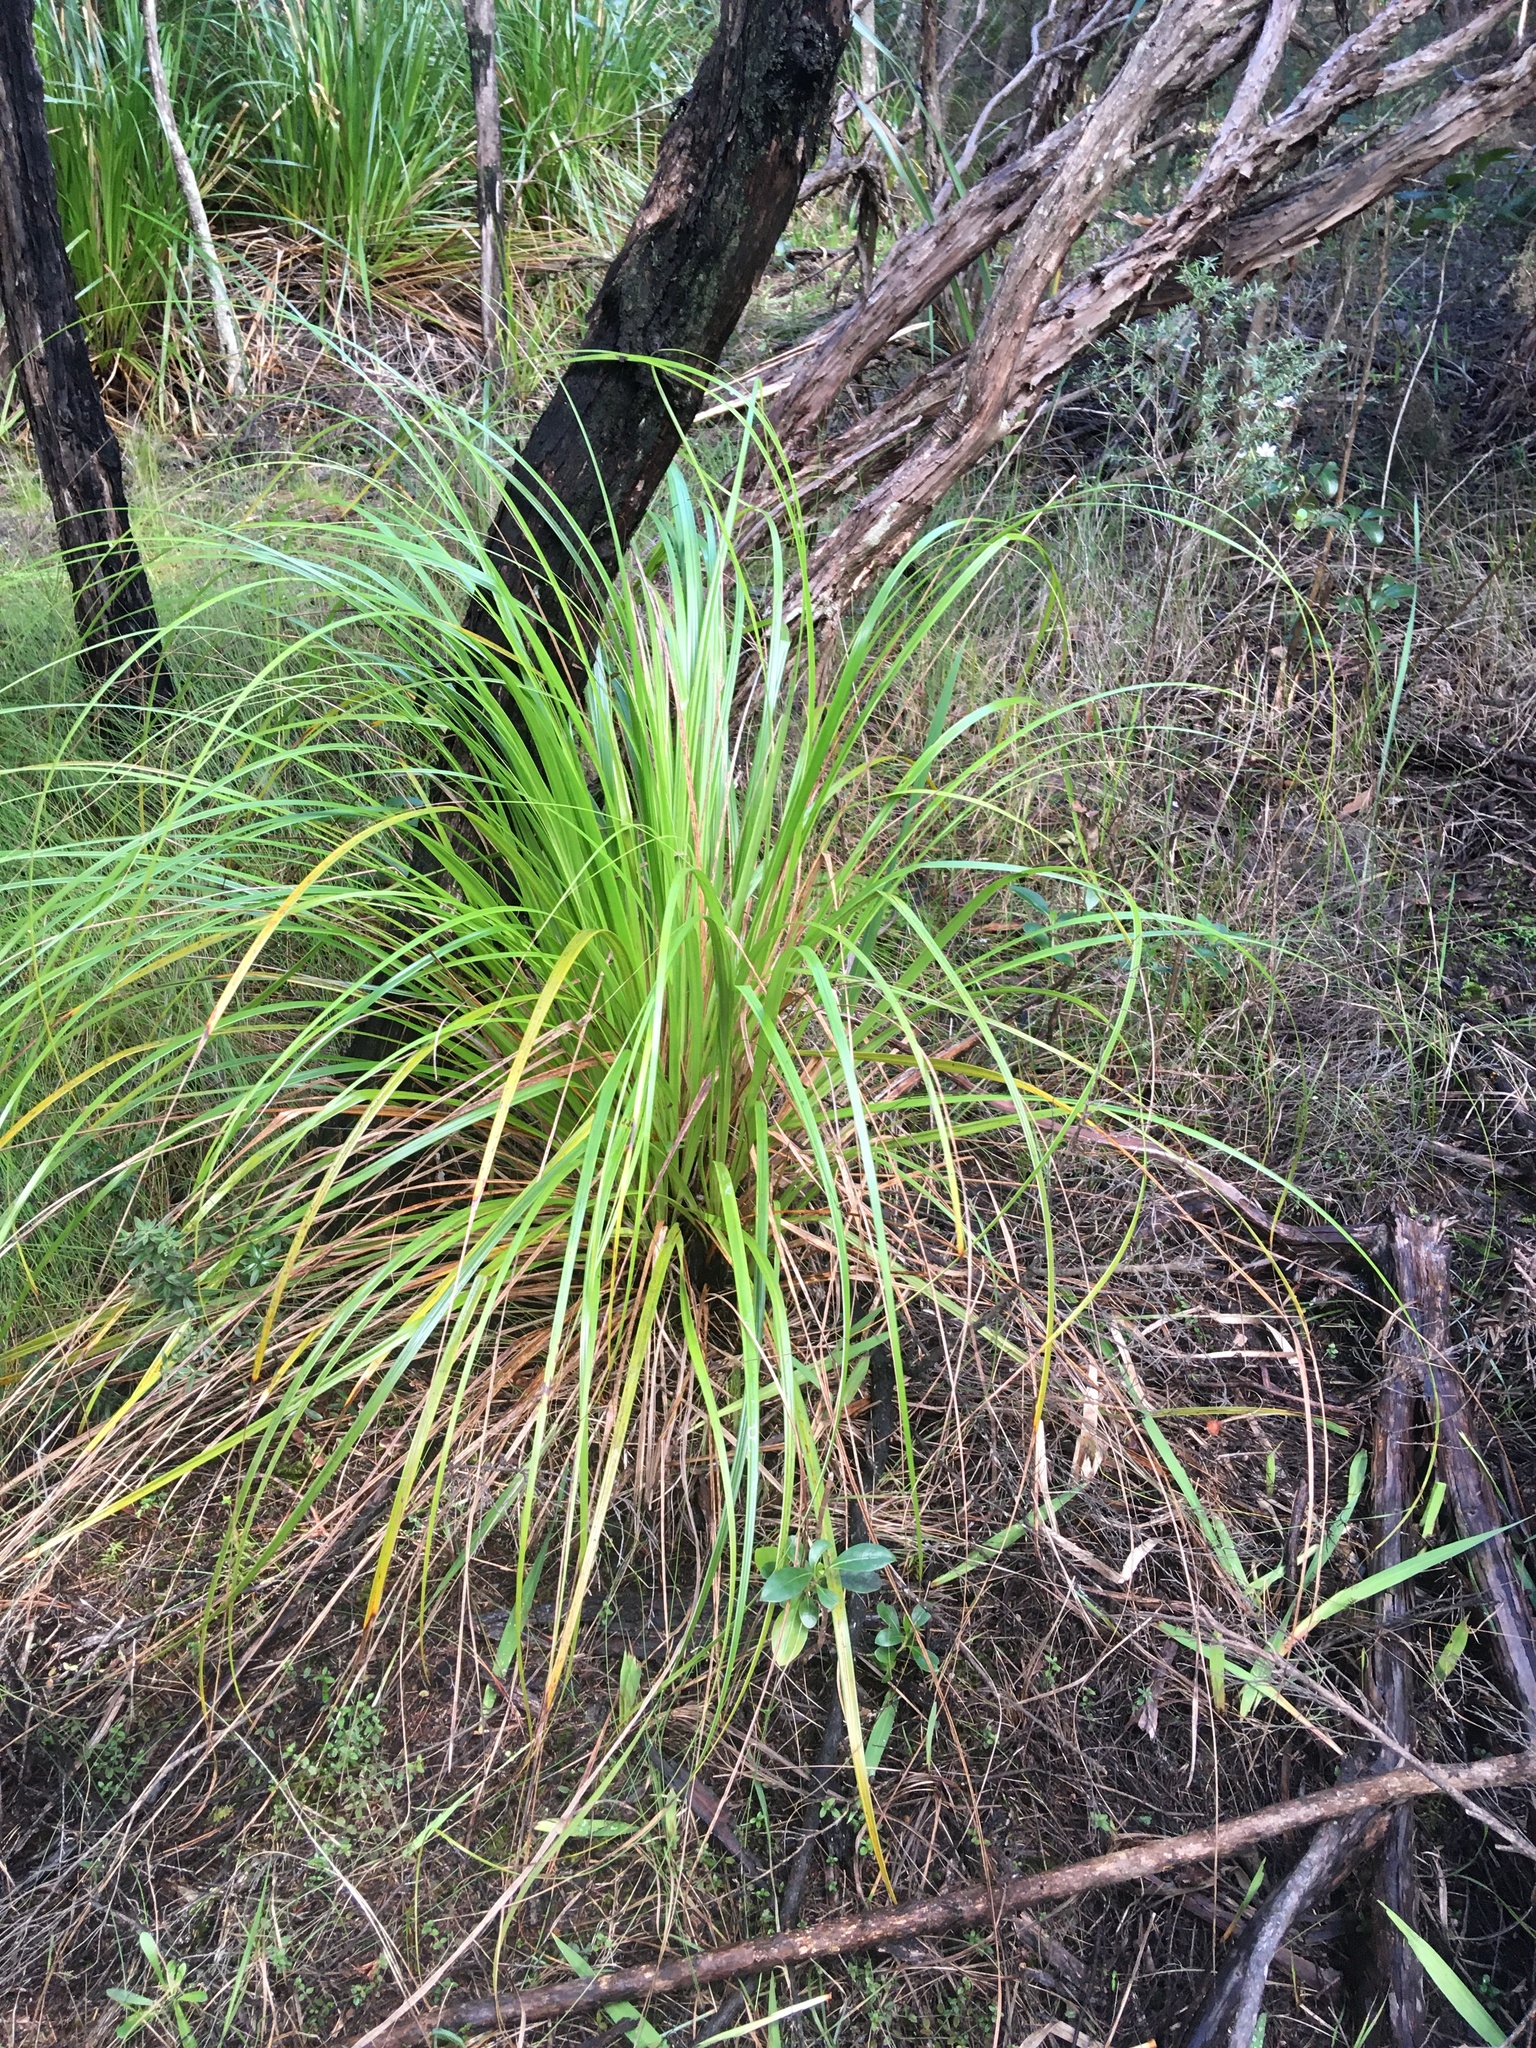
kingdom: Plantae
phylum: Tracheophyta
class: Liliopsida
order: Poales
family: Cyperaceae
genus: Gahnia
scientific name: Gahnia xanthocarpa
